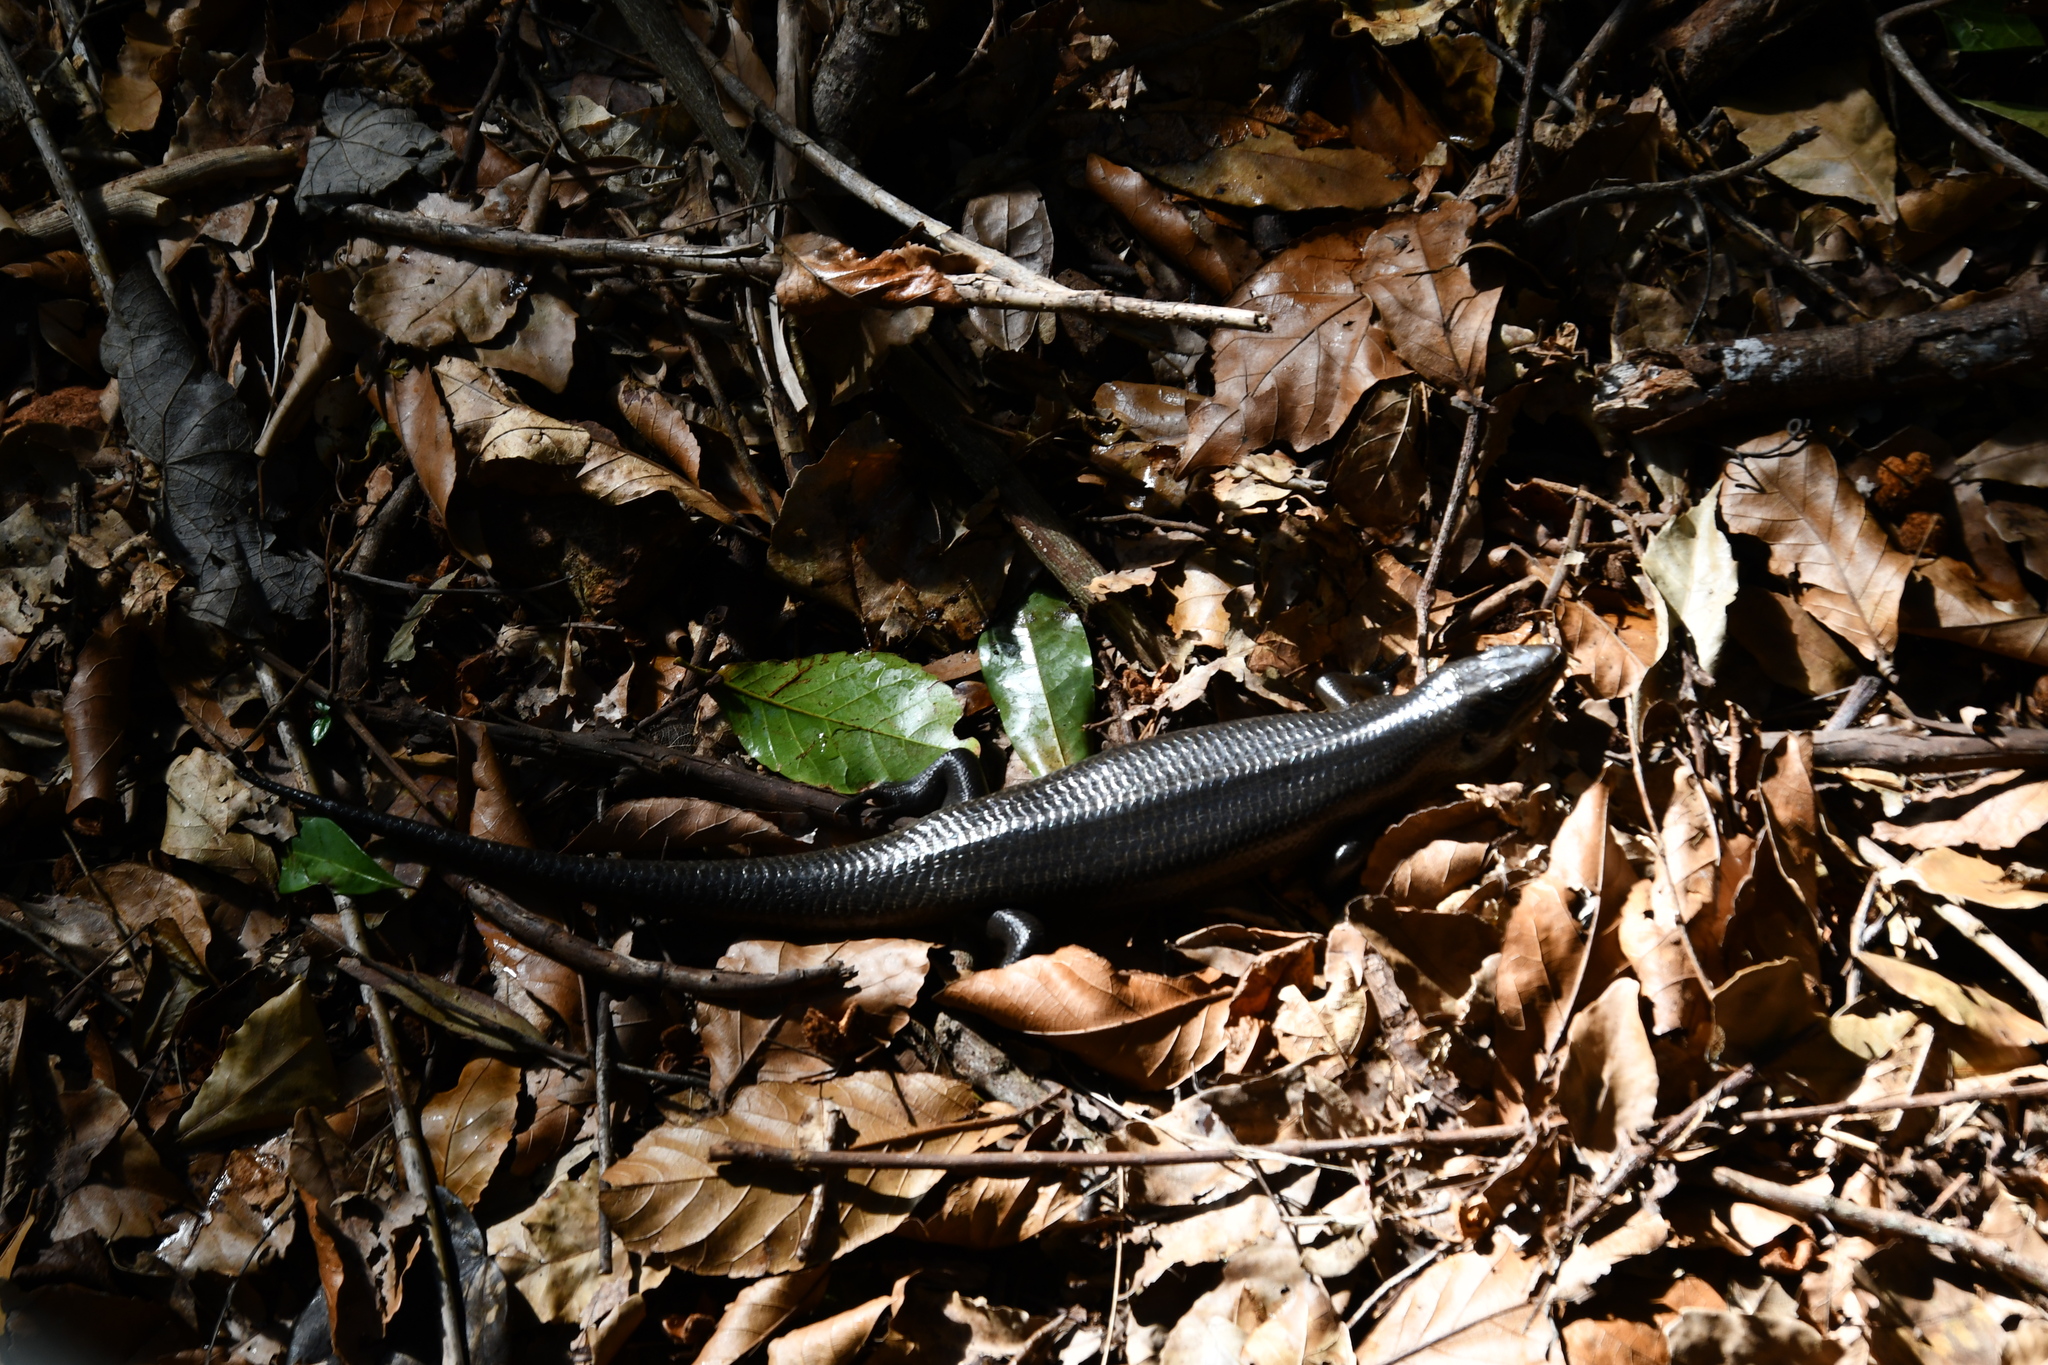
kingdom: Animalia
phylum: Chordata
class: Squamata
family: Scincidae
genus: Bellatorias
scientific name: Bellatorias major
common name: Land mullet
